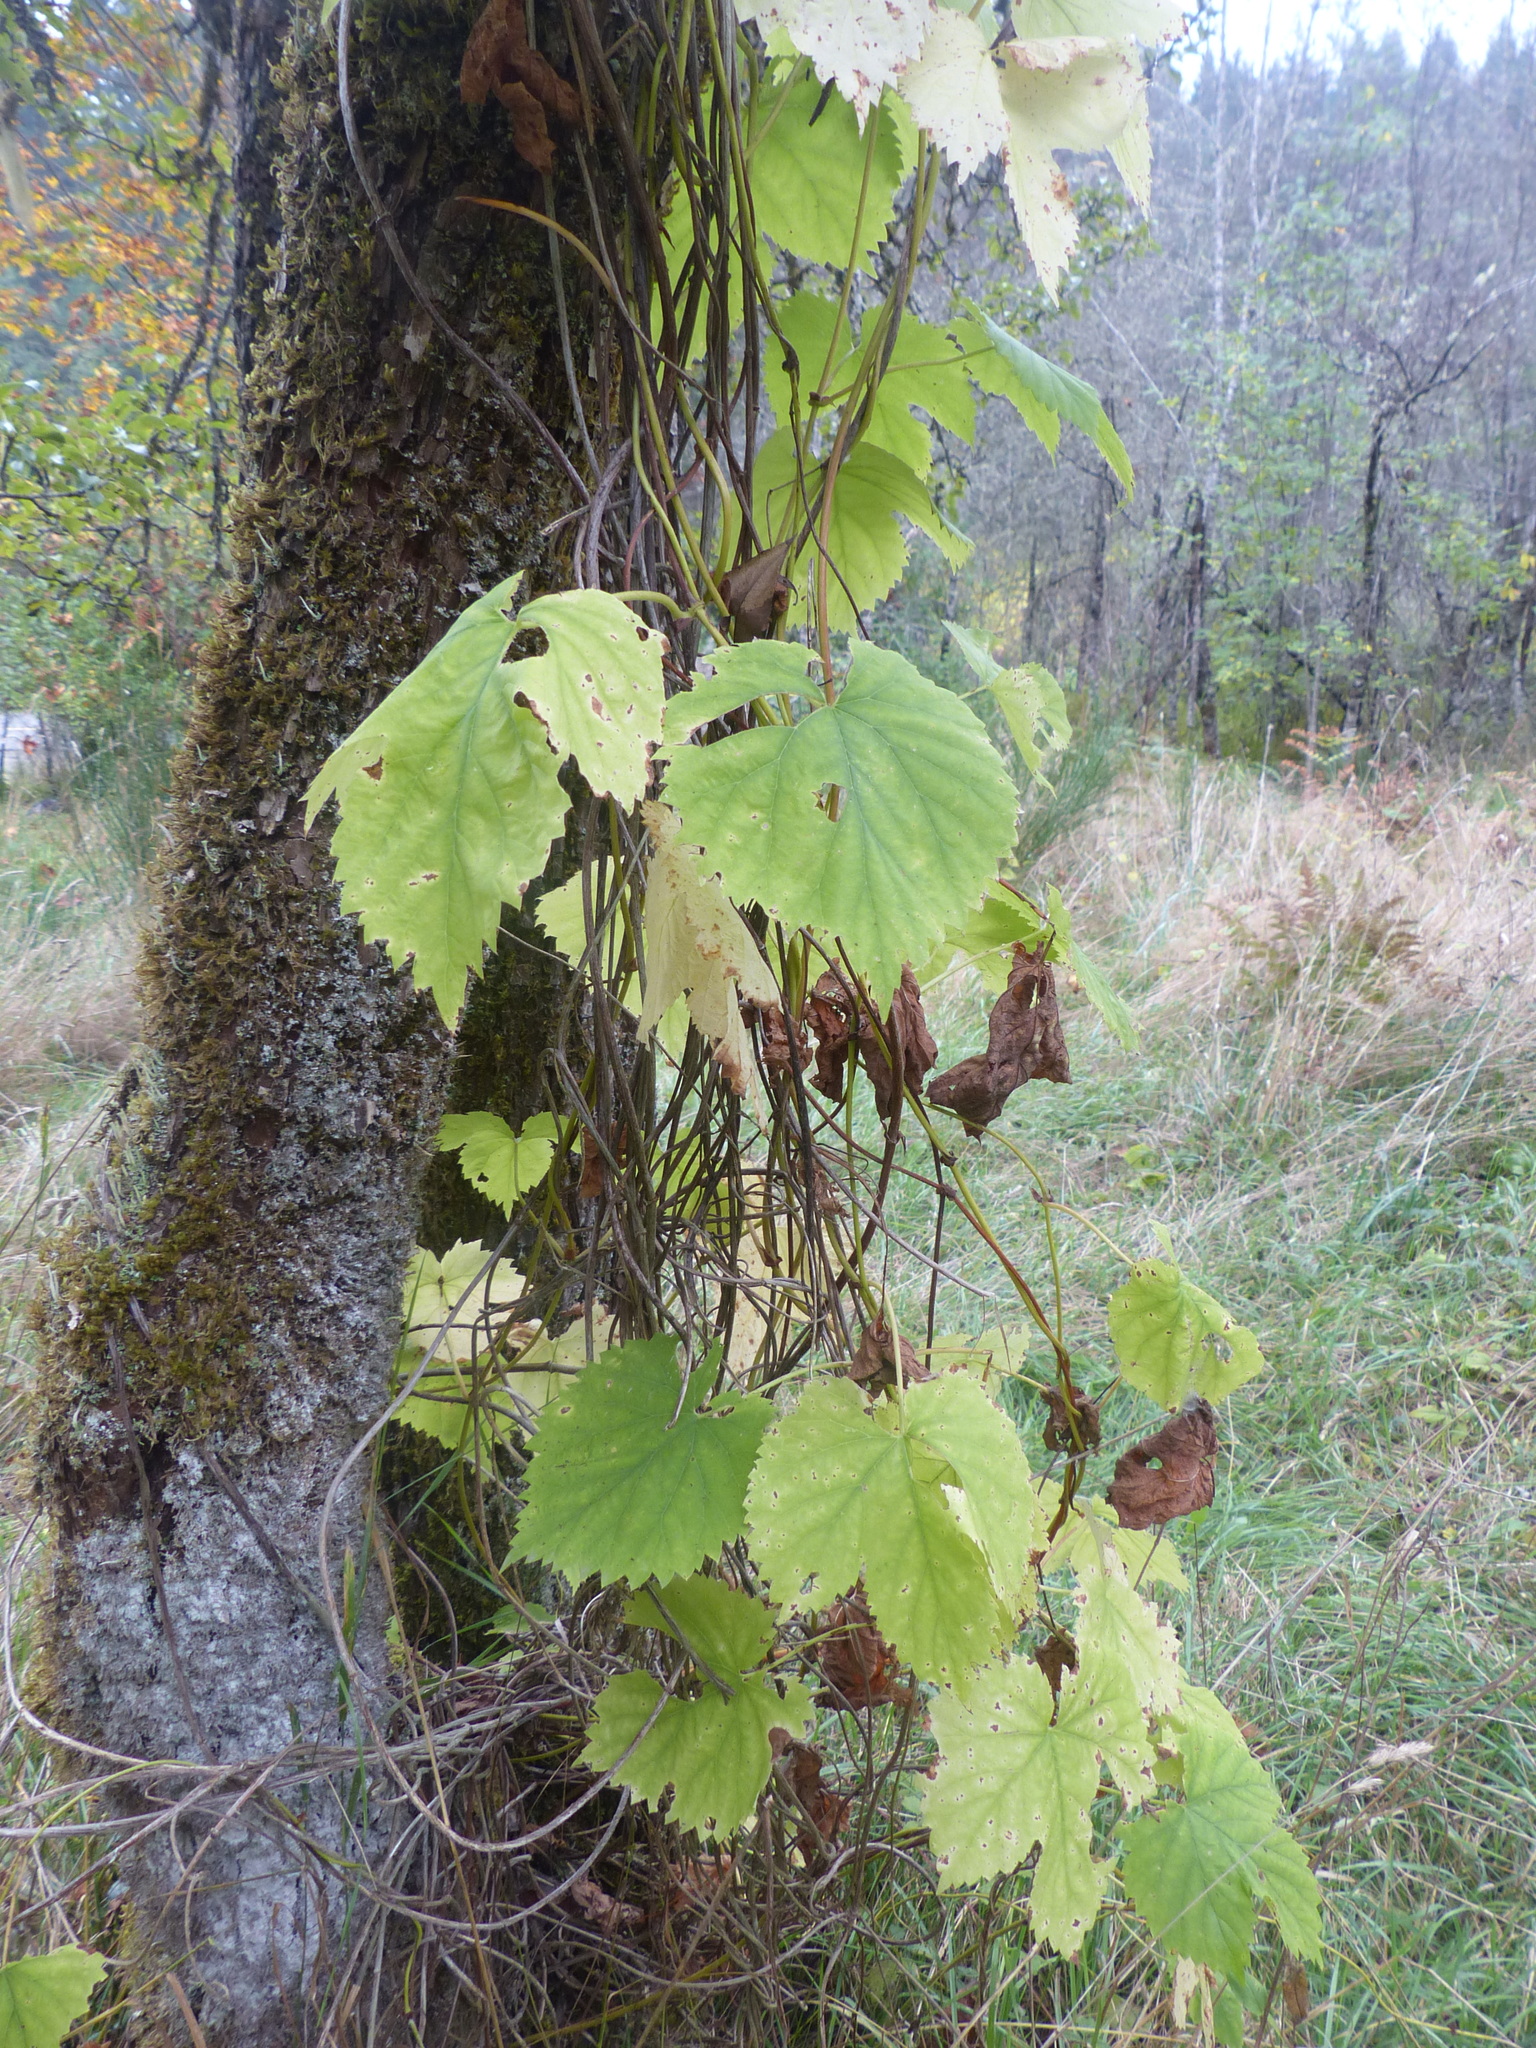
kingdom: Plantae
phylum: Tracheophyta
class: Magnoliopsida
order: Rosales
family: Cannabaceae
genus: Humulus
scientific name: Humulus lupulus
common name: Hop
